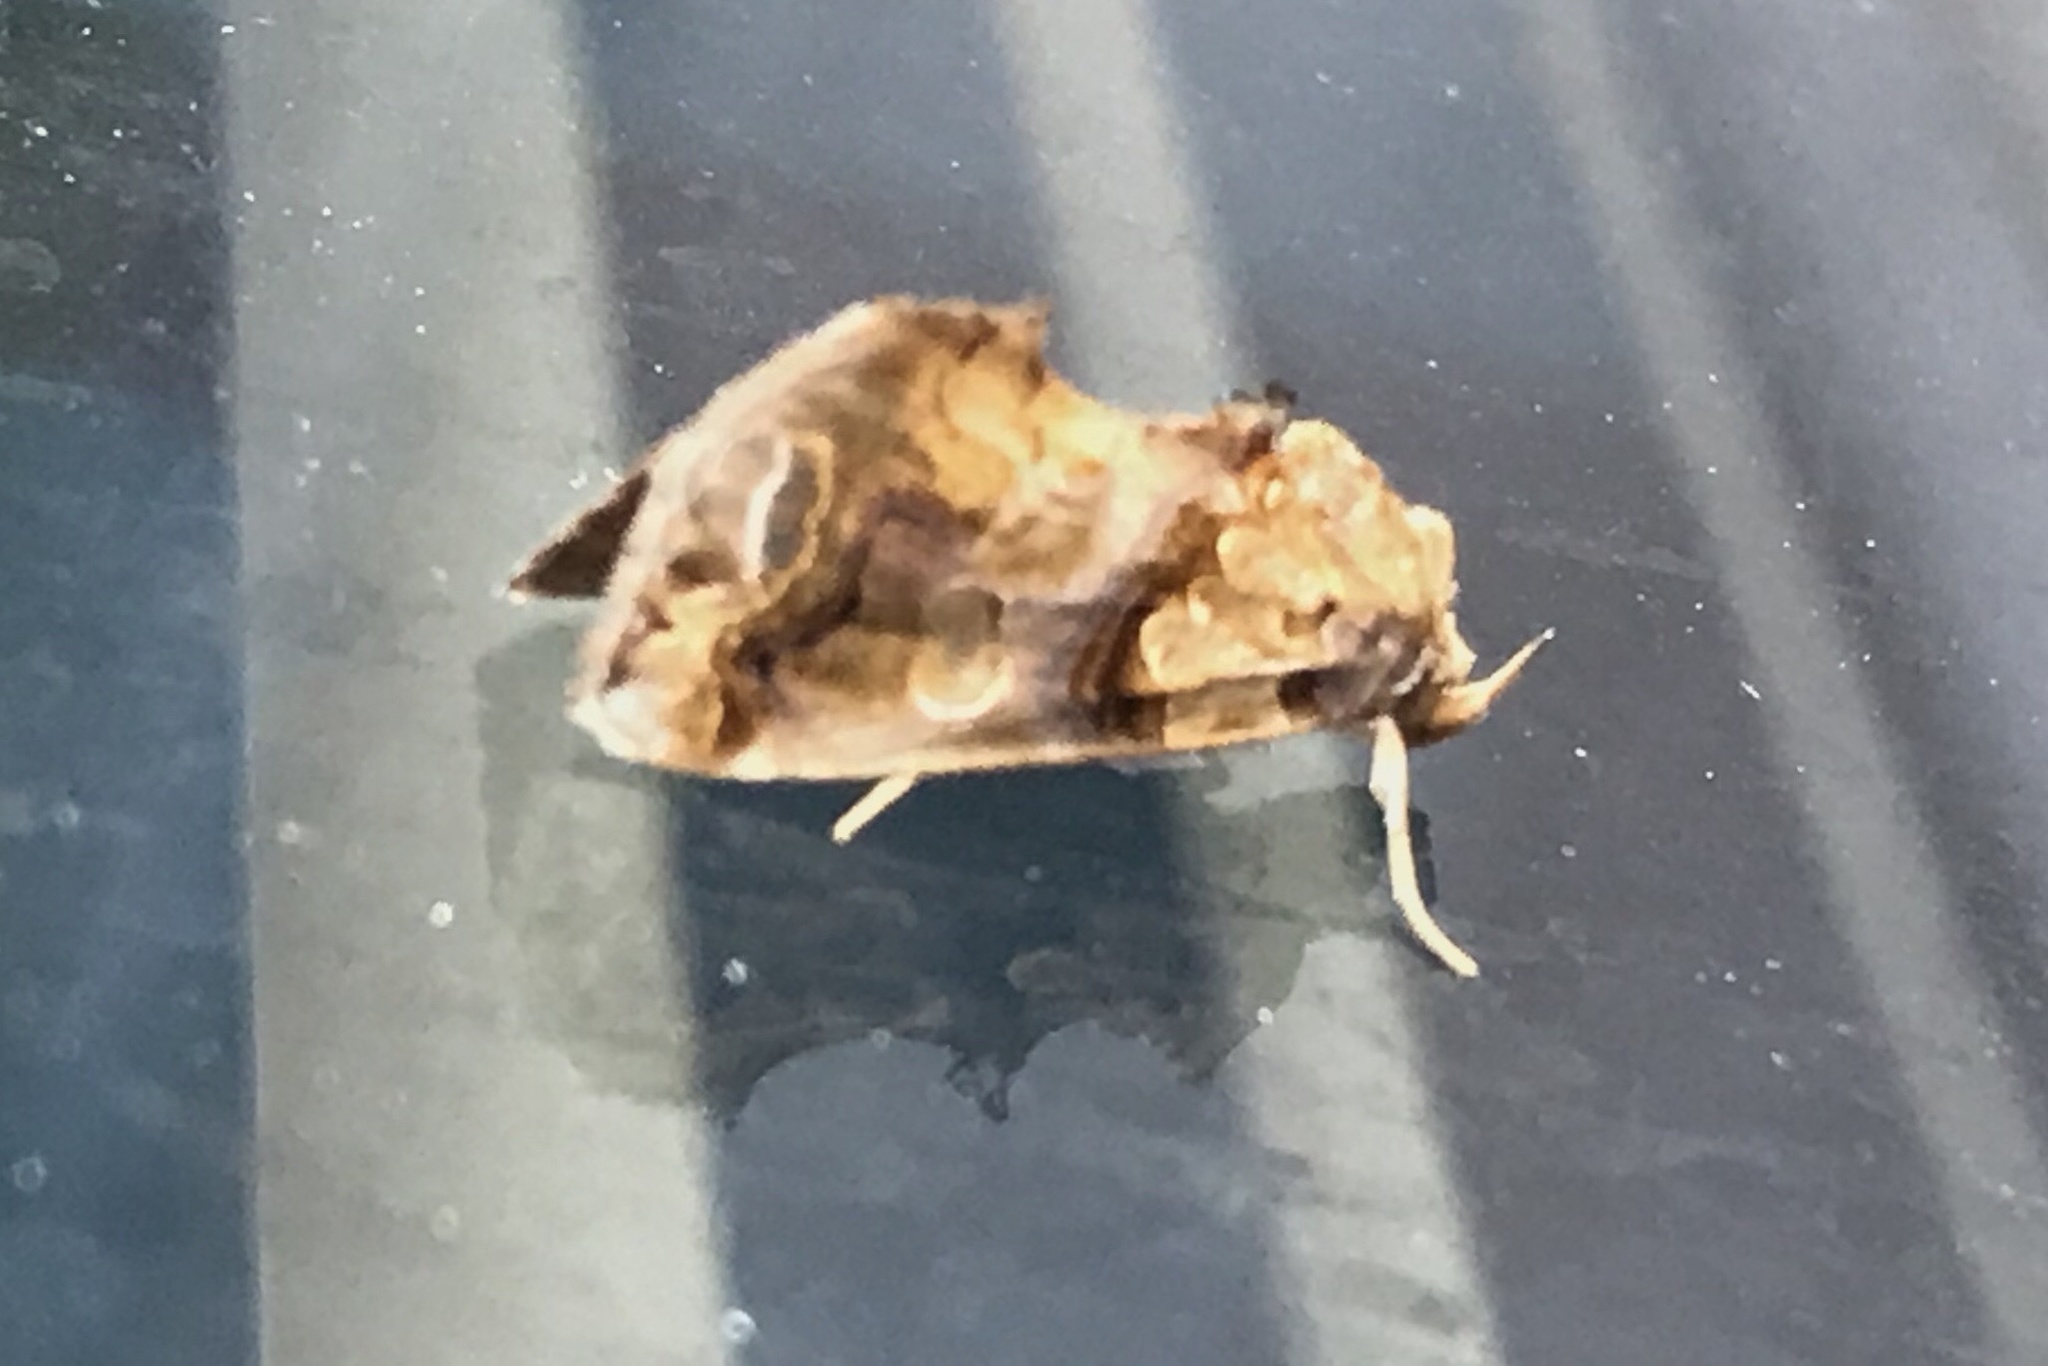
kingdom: Animalia
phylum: Arthropoda
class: Insecta
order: Lepidoptera
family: Erebidae
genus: Plusiodonta
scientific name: Plusiodonta compressipalpis
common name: Moonseed moth
